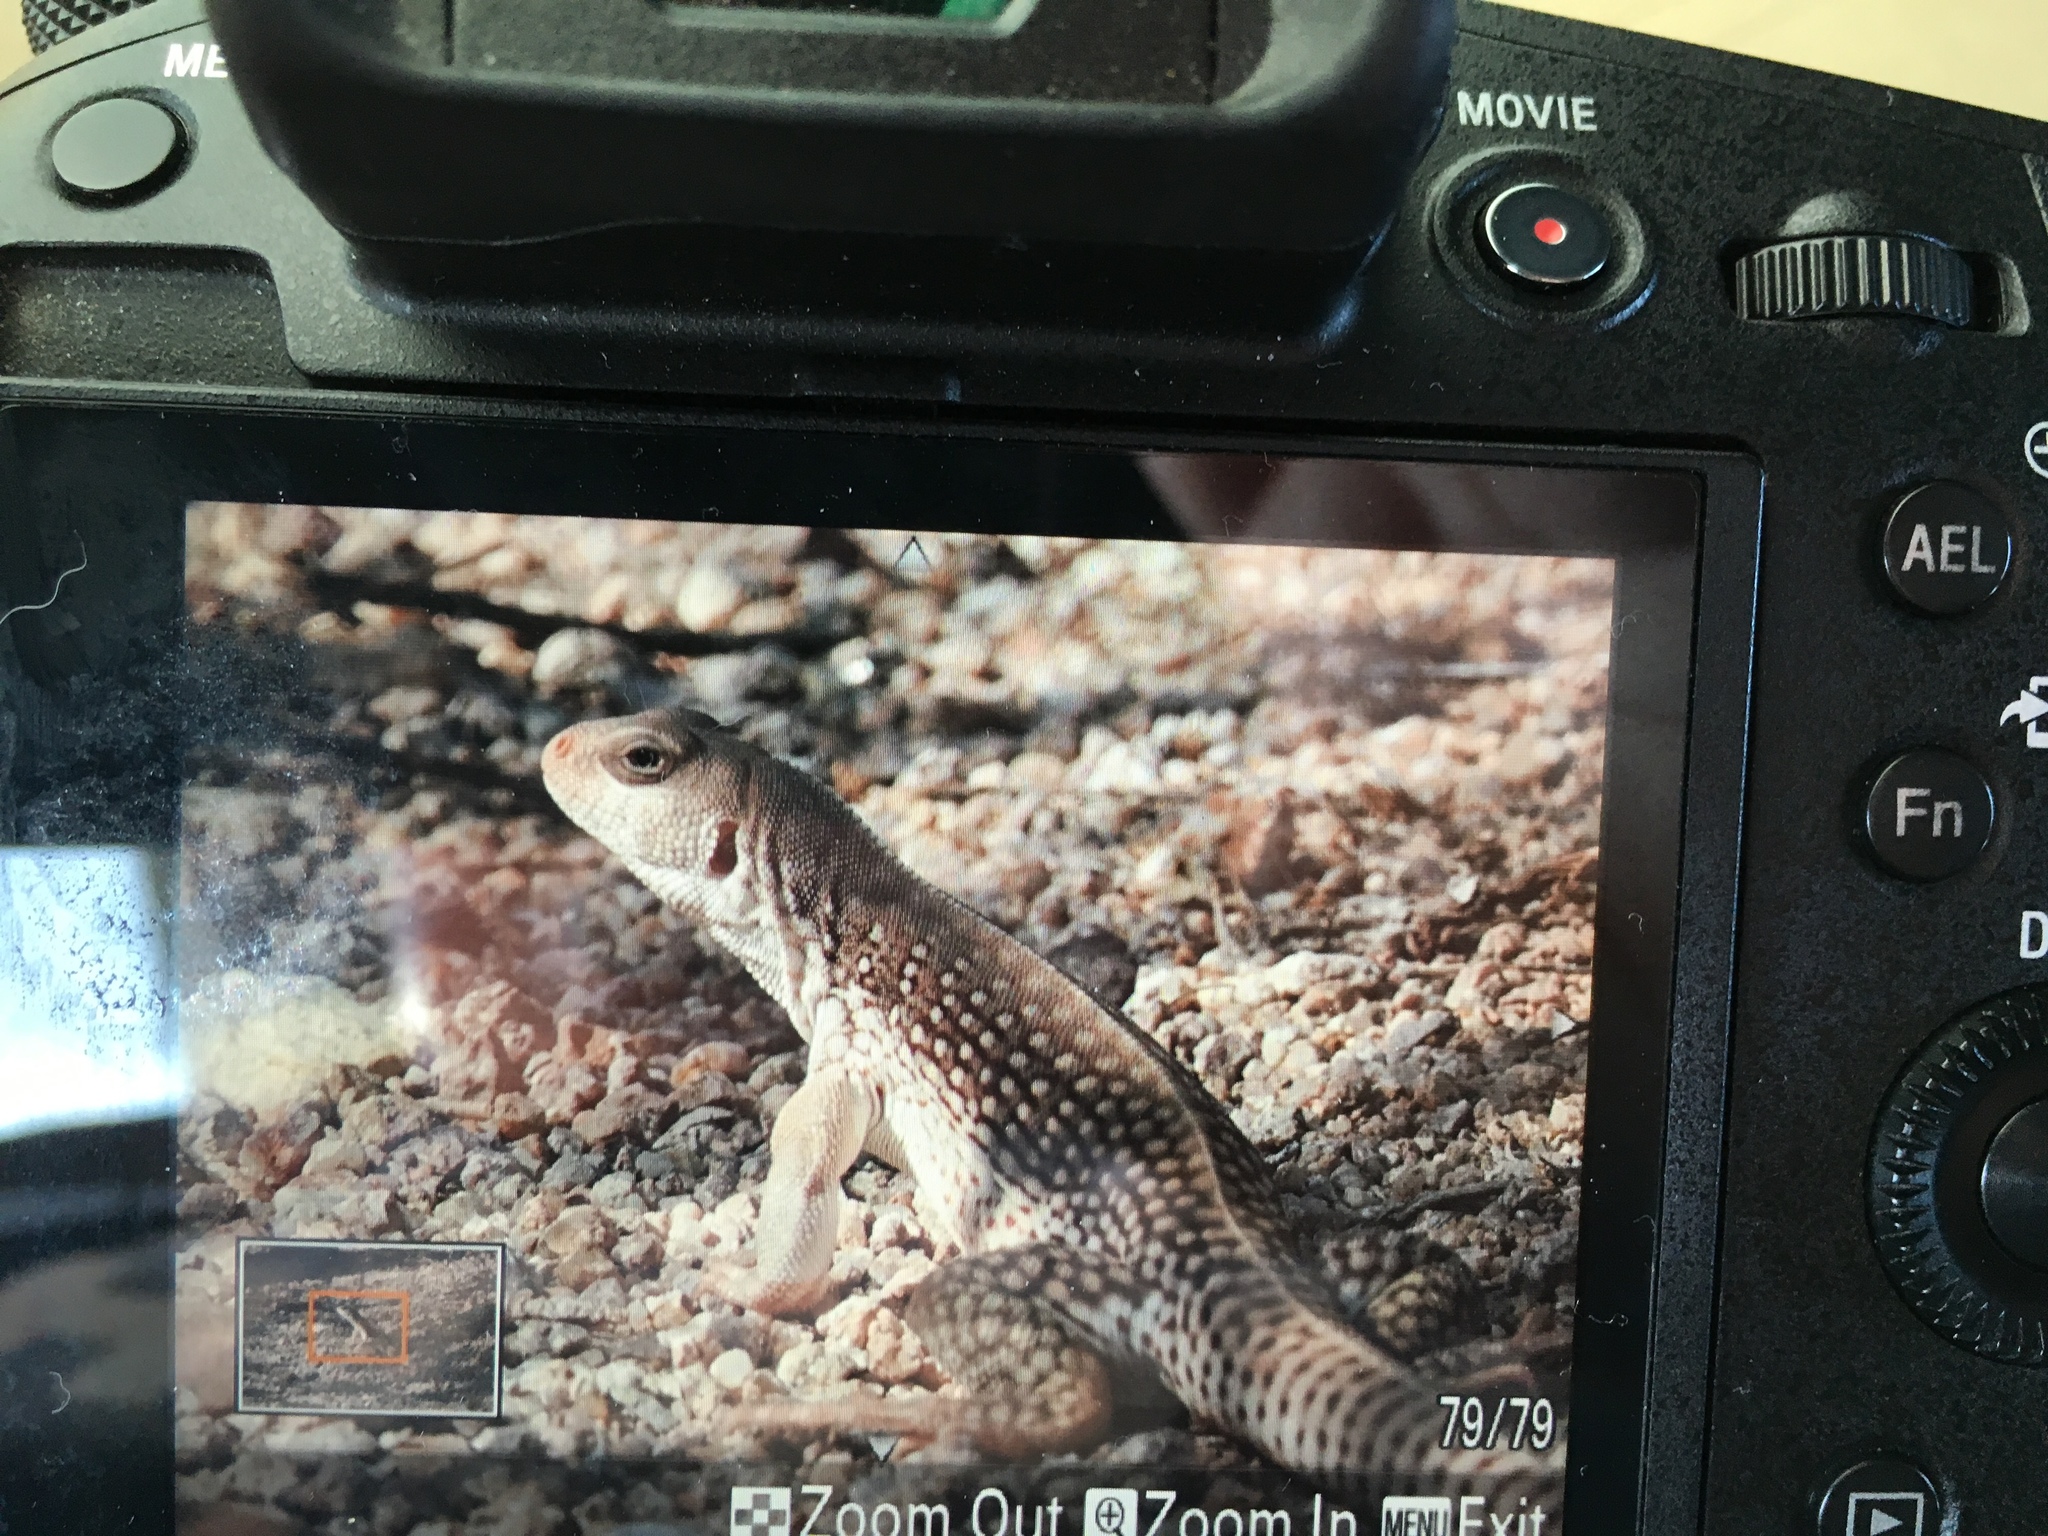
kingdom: Animalia
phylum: Chordata
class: Squamata
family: Iguanidae
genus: Dipsosaurus
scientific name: Dipsosaurus dorsalis
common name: Desert iguana
